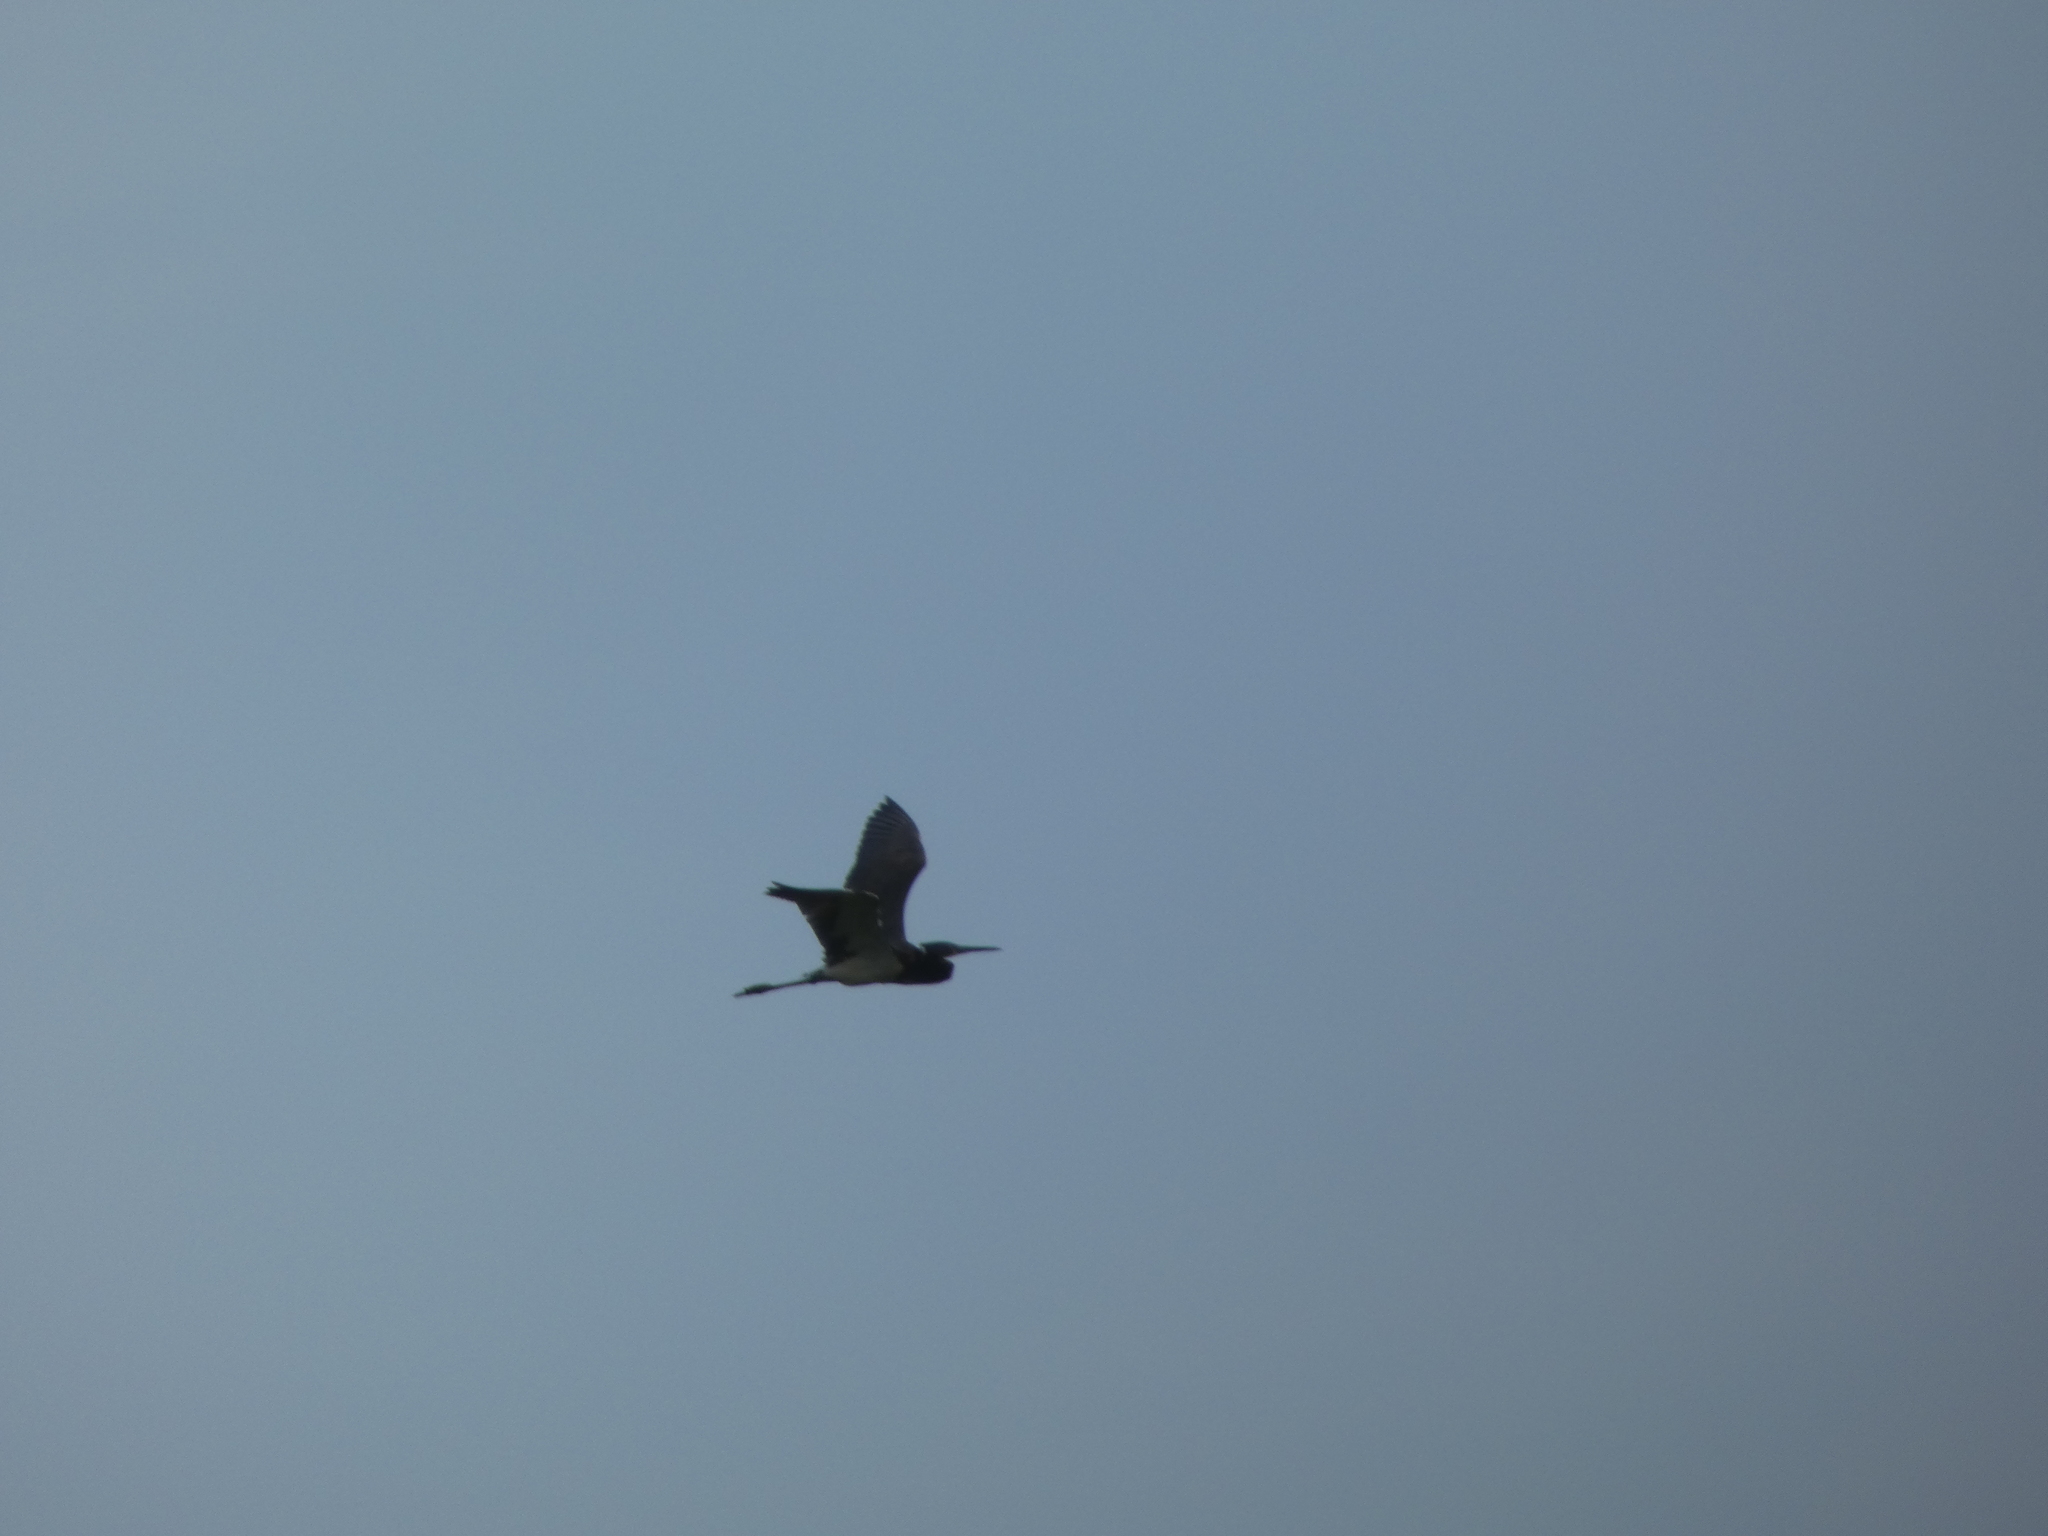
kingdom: Animalia
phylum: Chordata
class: Aves
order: Pelecaniformes
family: Ardeidae
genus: Egretta
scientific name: Egretta tricolor
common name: Tricolored heron
